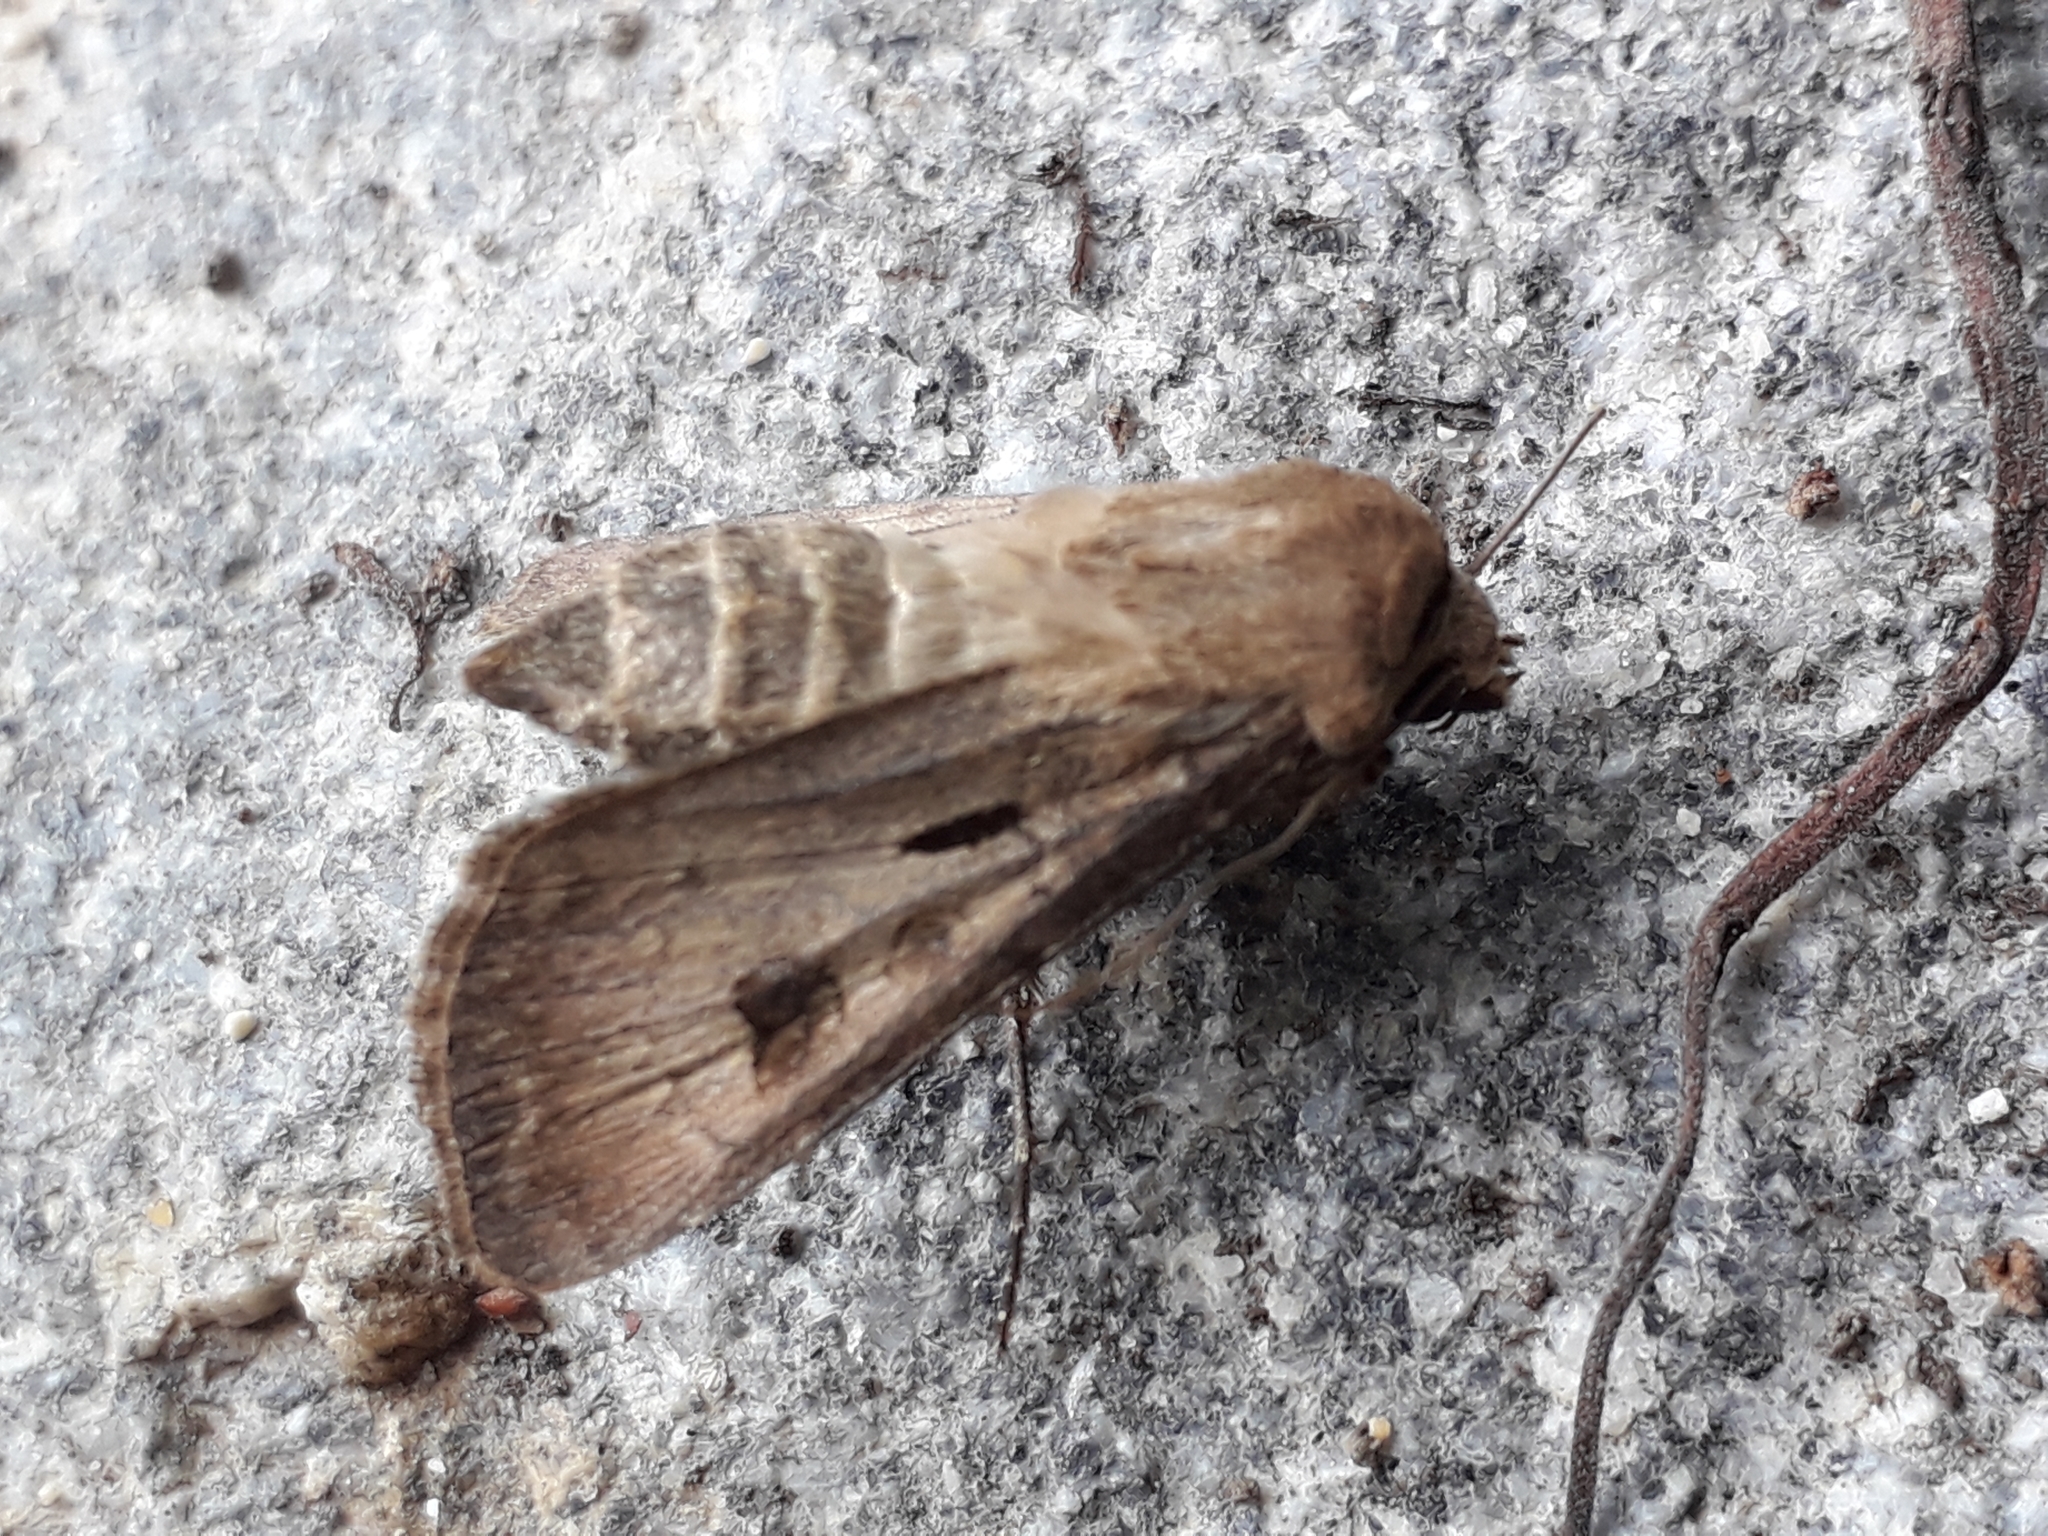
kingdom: Animalia
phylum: Arthropoda
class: Insecta
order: Lepidoptera
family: Noctuidae
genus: Agrotis
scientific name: Agrotis exclamationis
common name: Heart and dart
